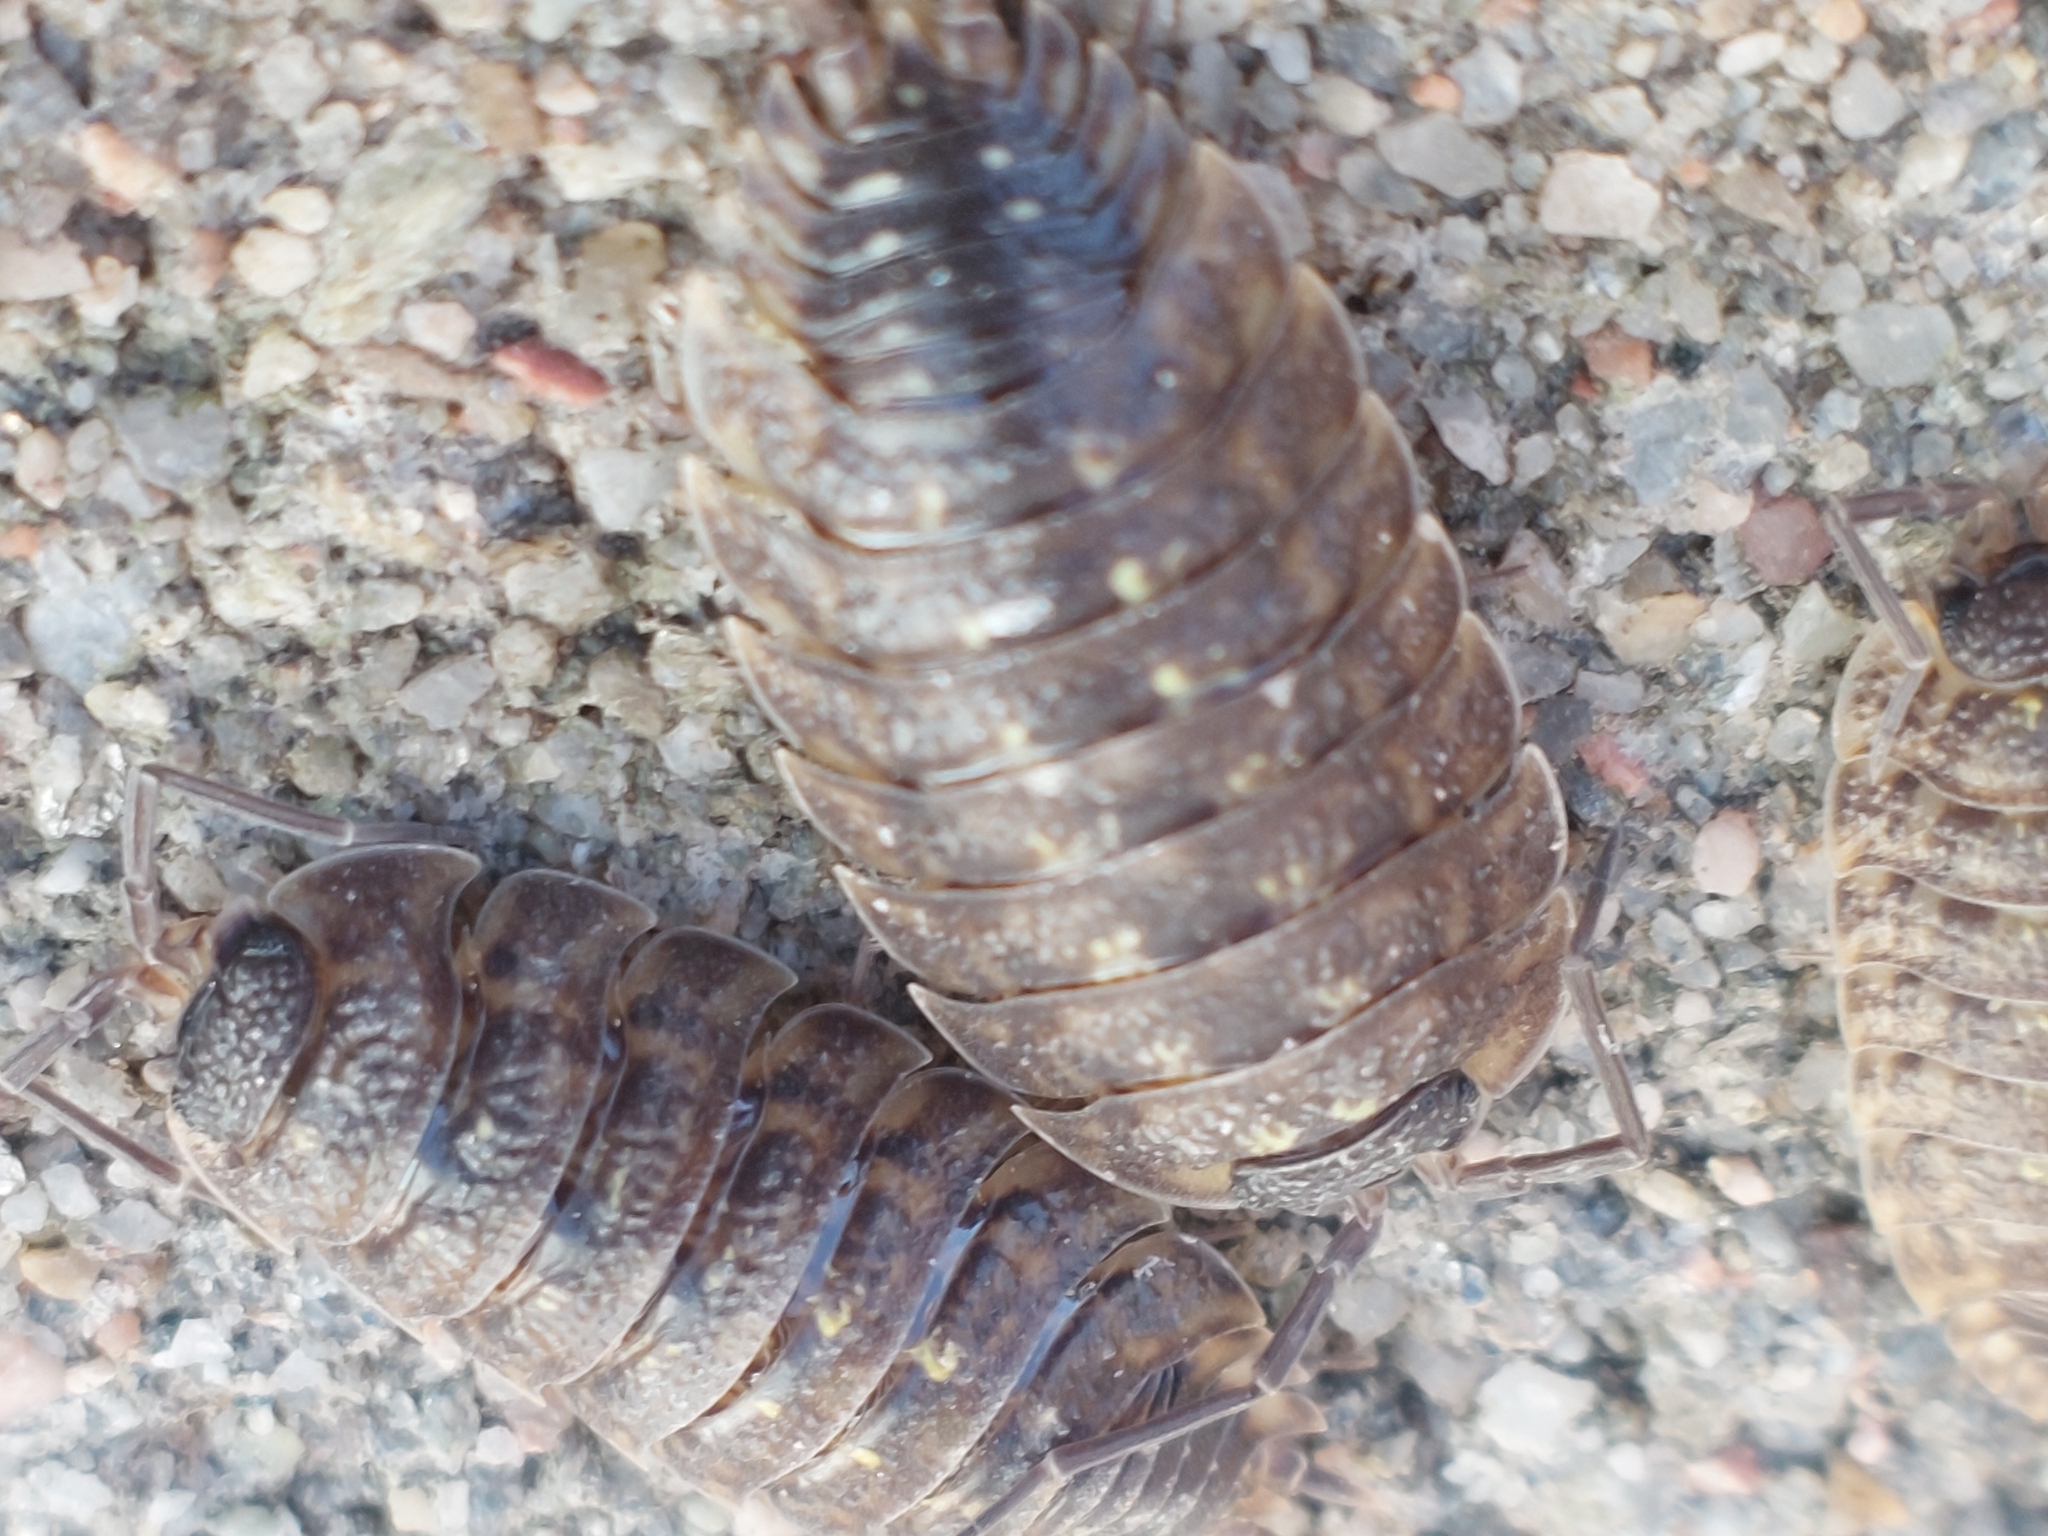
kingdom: Animalia
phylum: Arthropoda
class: Malacostraca
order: Isopoda
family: Porcellionidae
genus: Porcellio
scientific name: Porcellio spinicornis
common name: Painted woodlouse
